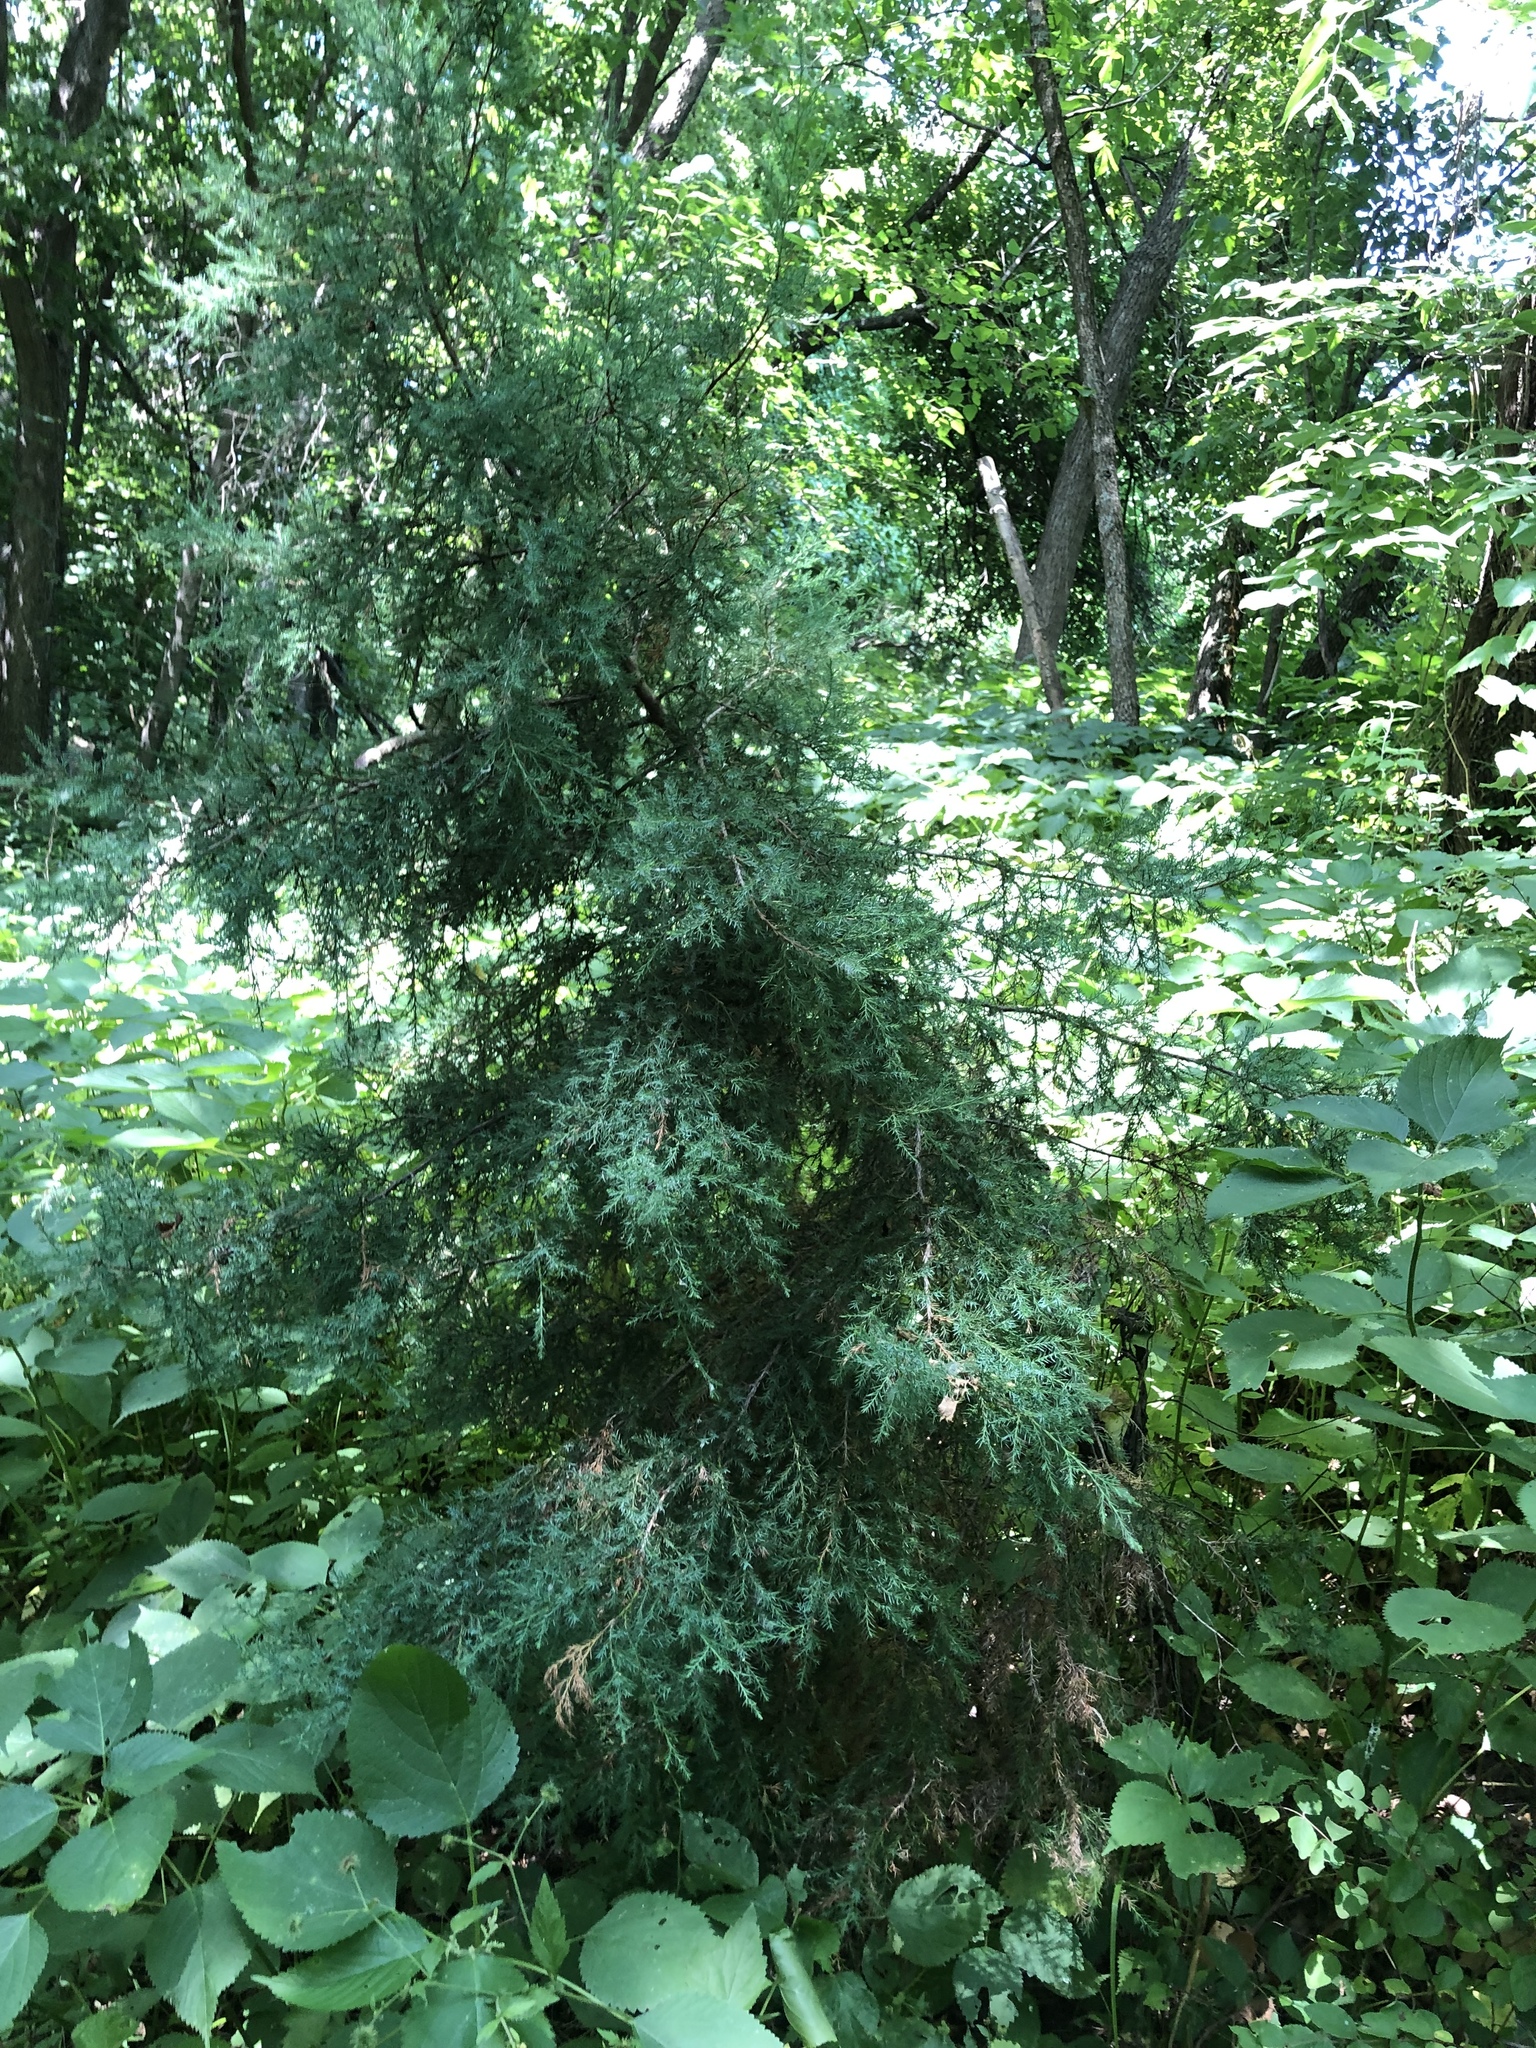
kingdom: Plantae
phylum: Tracheophyta
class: Pinopsida
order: Pinales
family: Cupressaceae
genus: Juniperus
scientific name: Juniperus virginiana
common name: Red juniper
